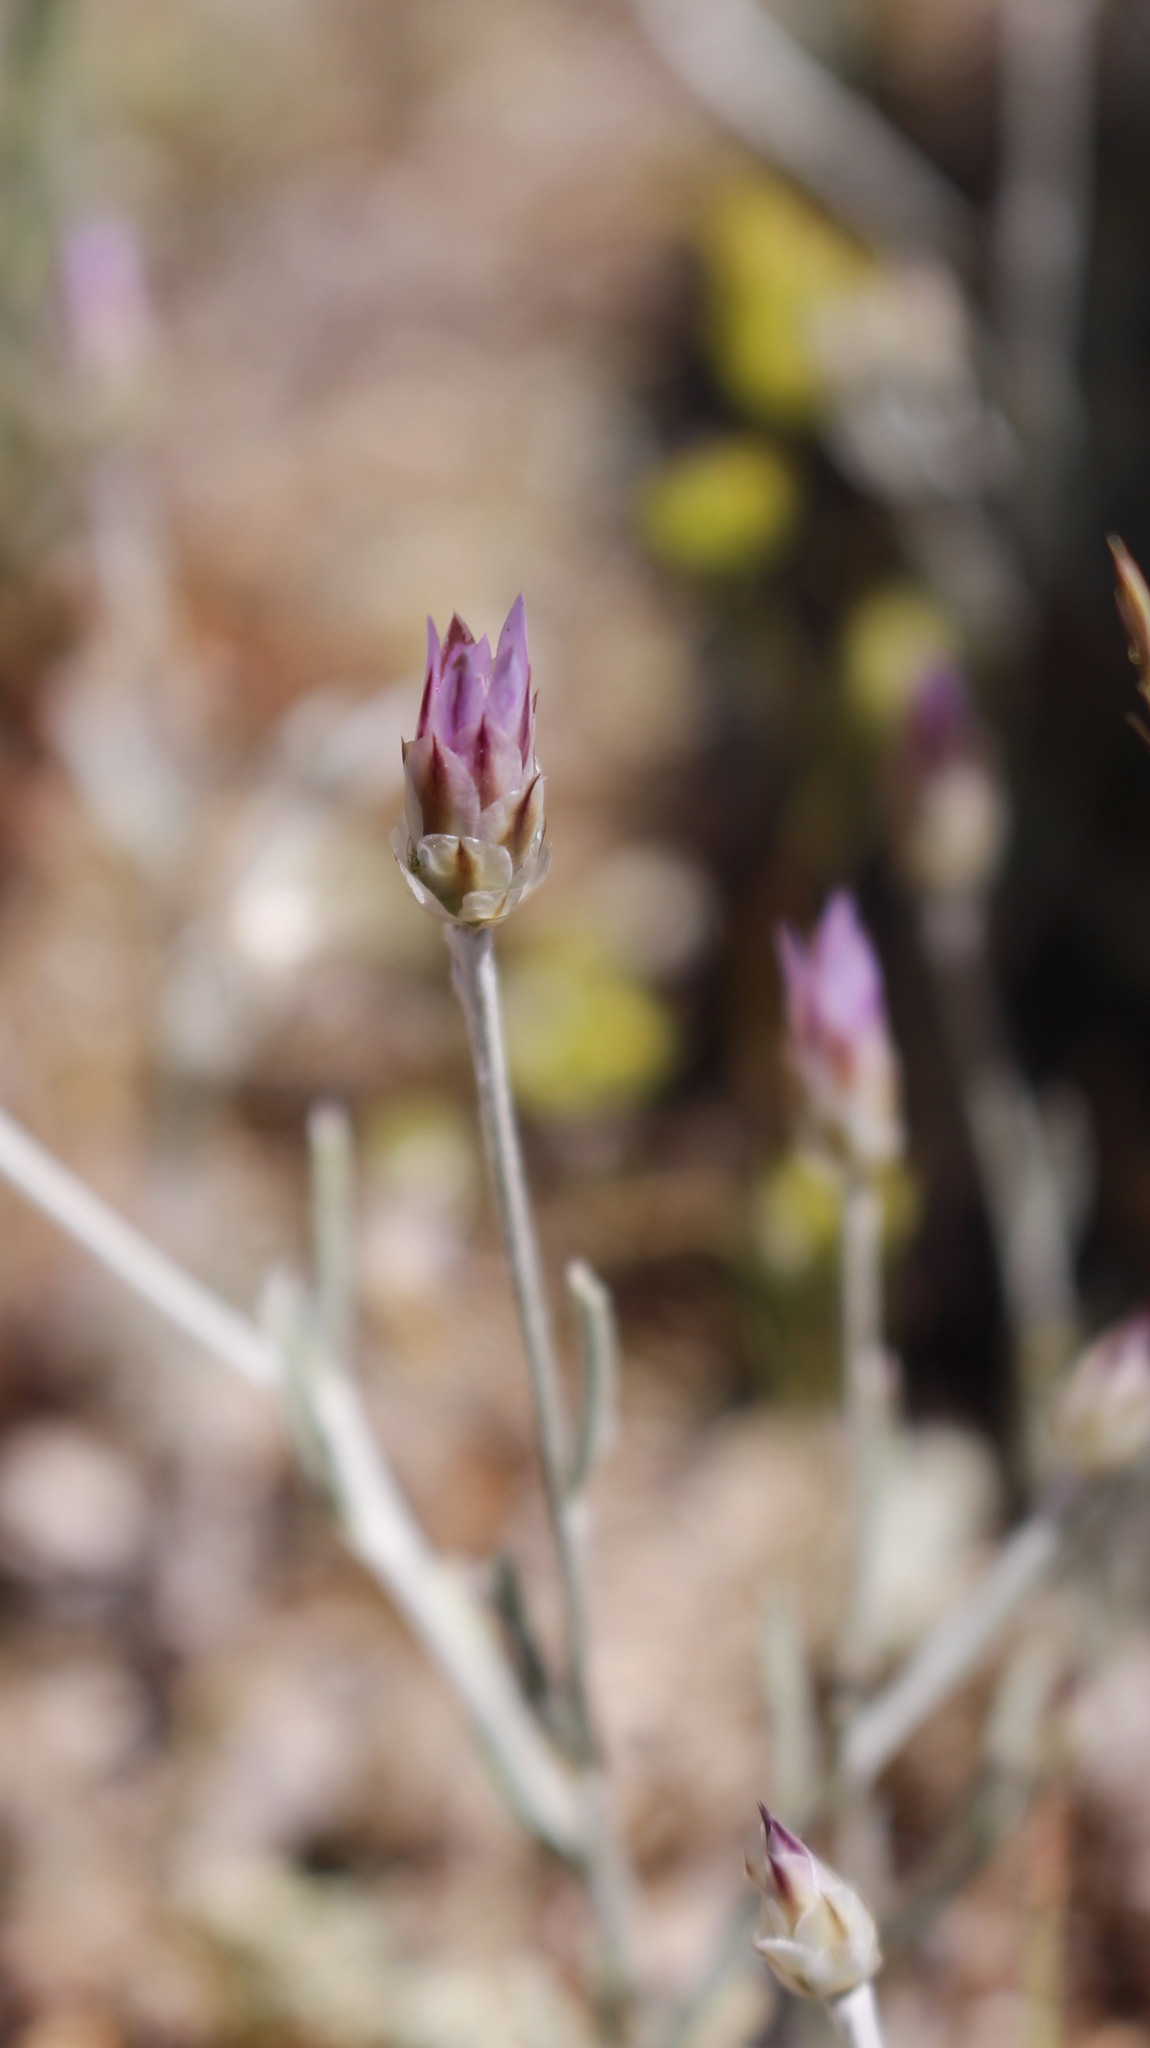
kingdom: Plantae
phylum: Tracheophyta
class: Magnoliopsida
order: Asterales
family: Asteraceae
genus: Xeranthemum
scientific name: Xeranthemum inapertum
